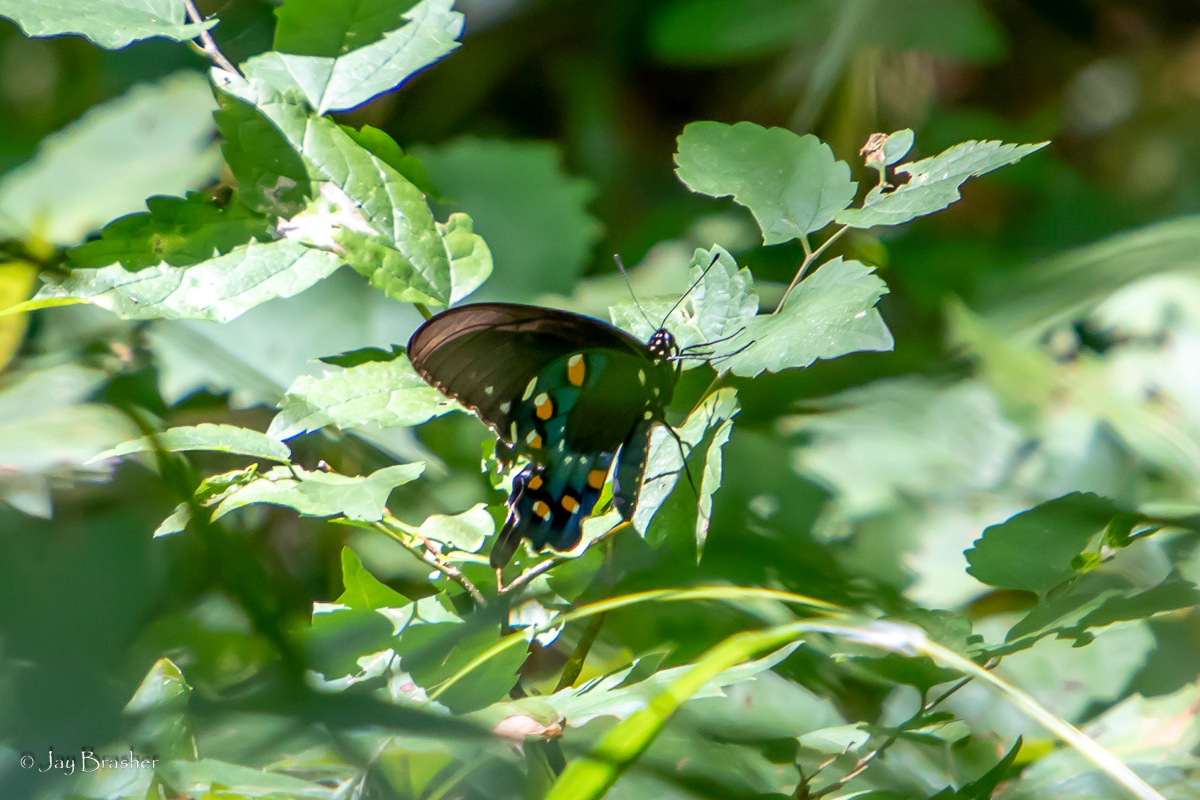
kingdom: Animalia
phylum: Arthropoda
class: Insecta
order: Lepidoptera
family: Papilionidae
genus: Battus
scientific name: Battus philenor
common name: Pipevine swallowtail
